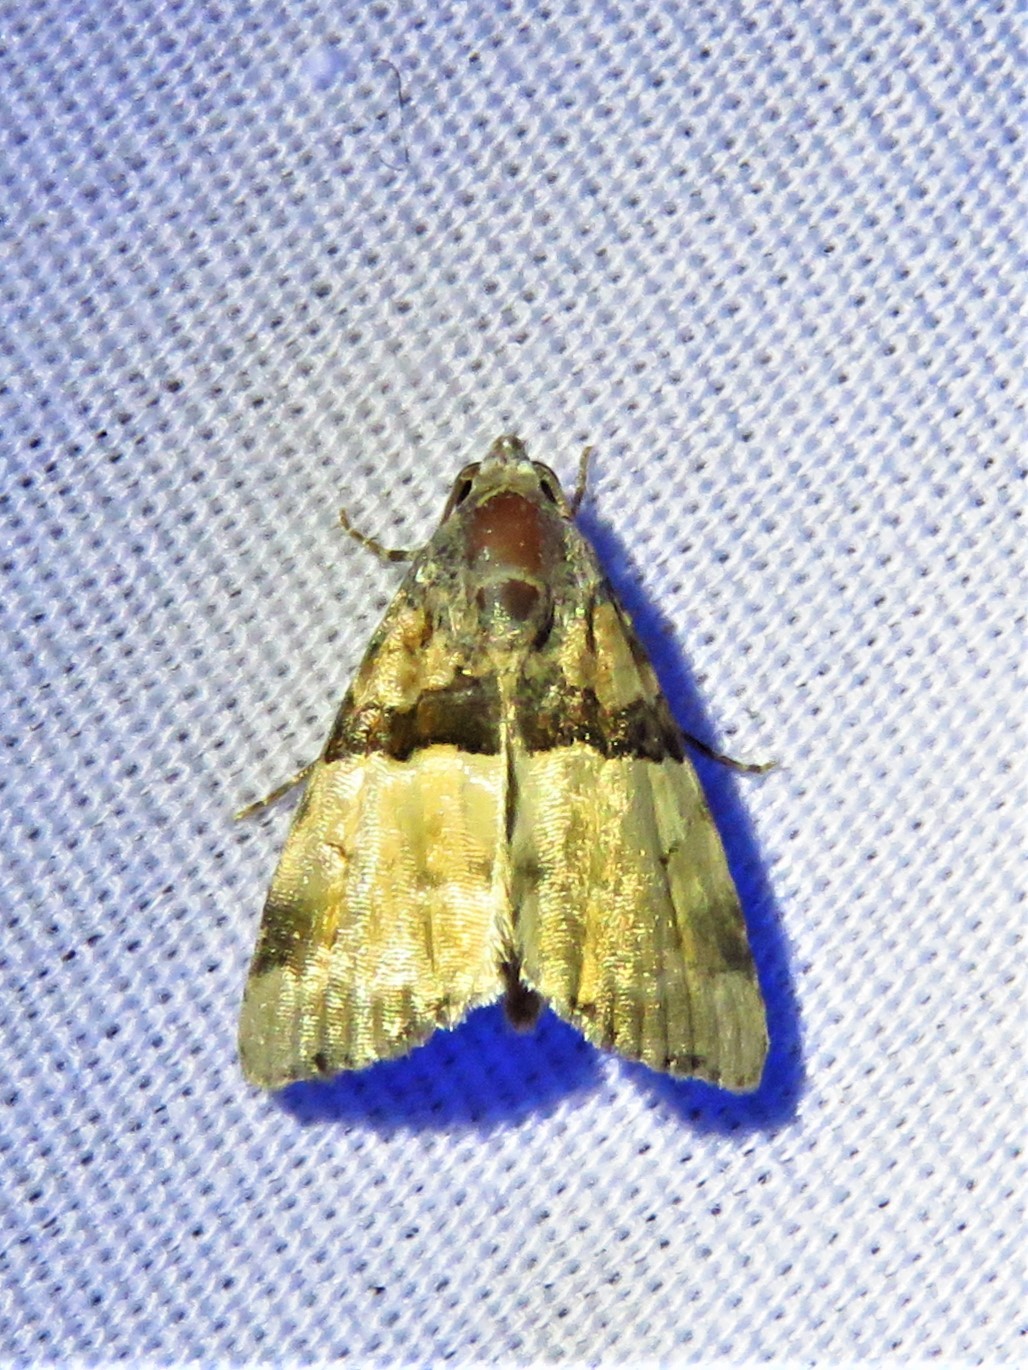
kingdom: Animalia
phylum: Arthropoda
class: Insecta
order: Lepidoptera
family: Noctuidae
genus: Cobubatha
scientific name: Cobubatha dividua
